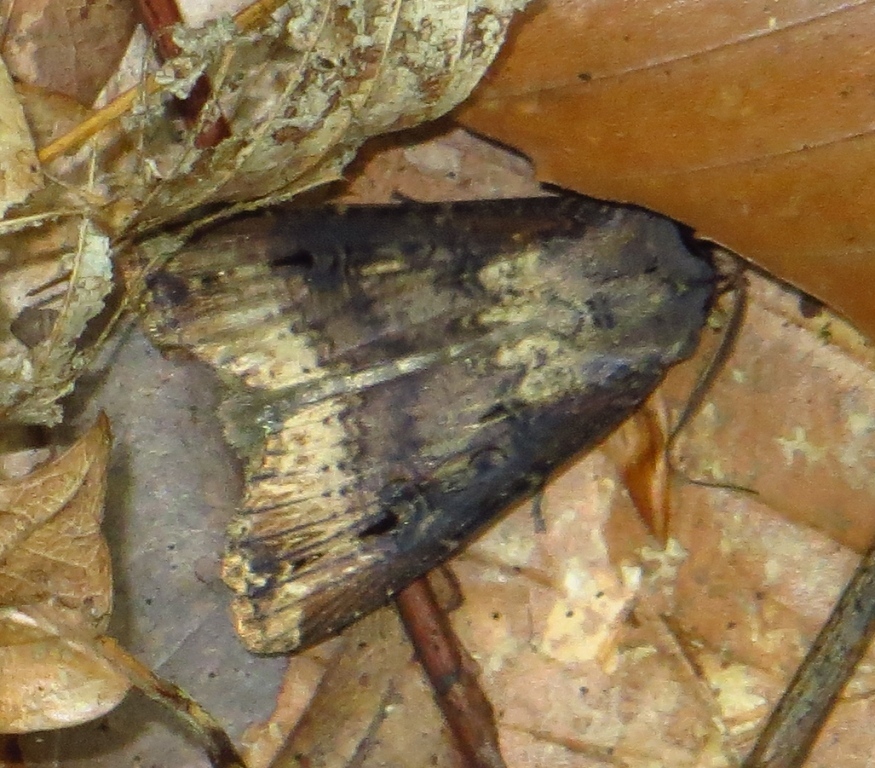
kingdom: Animalia
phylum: Arthropoda
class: Insecta
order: Lepidoptera
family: Noctuidae
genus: Agrotis
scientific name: Agrotis ipsilon
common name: Dark sword-grass
